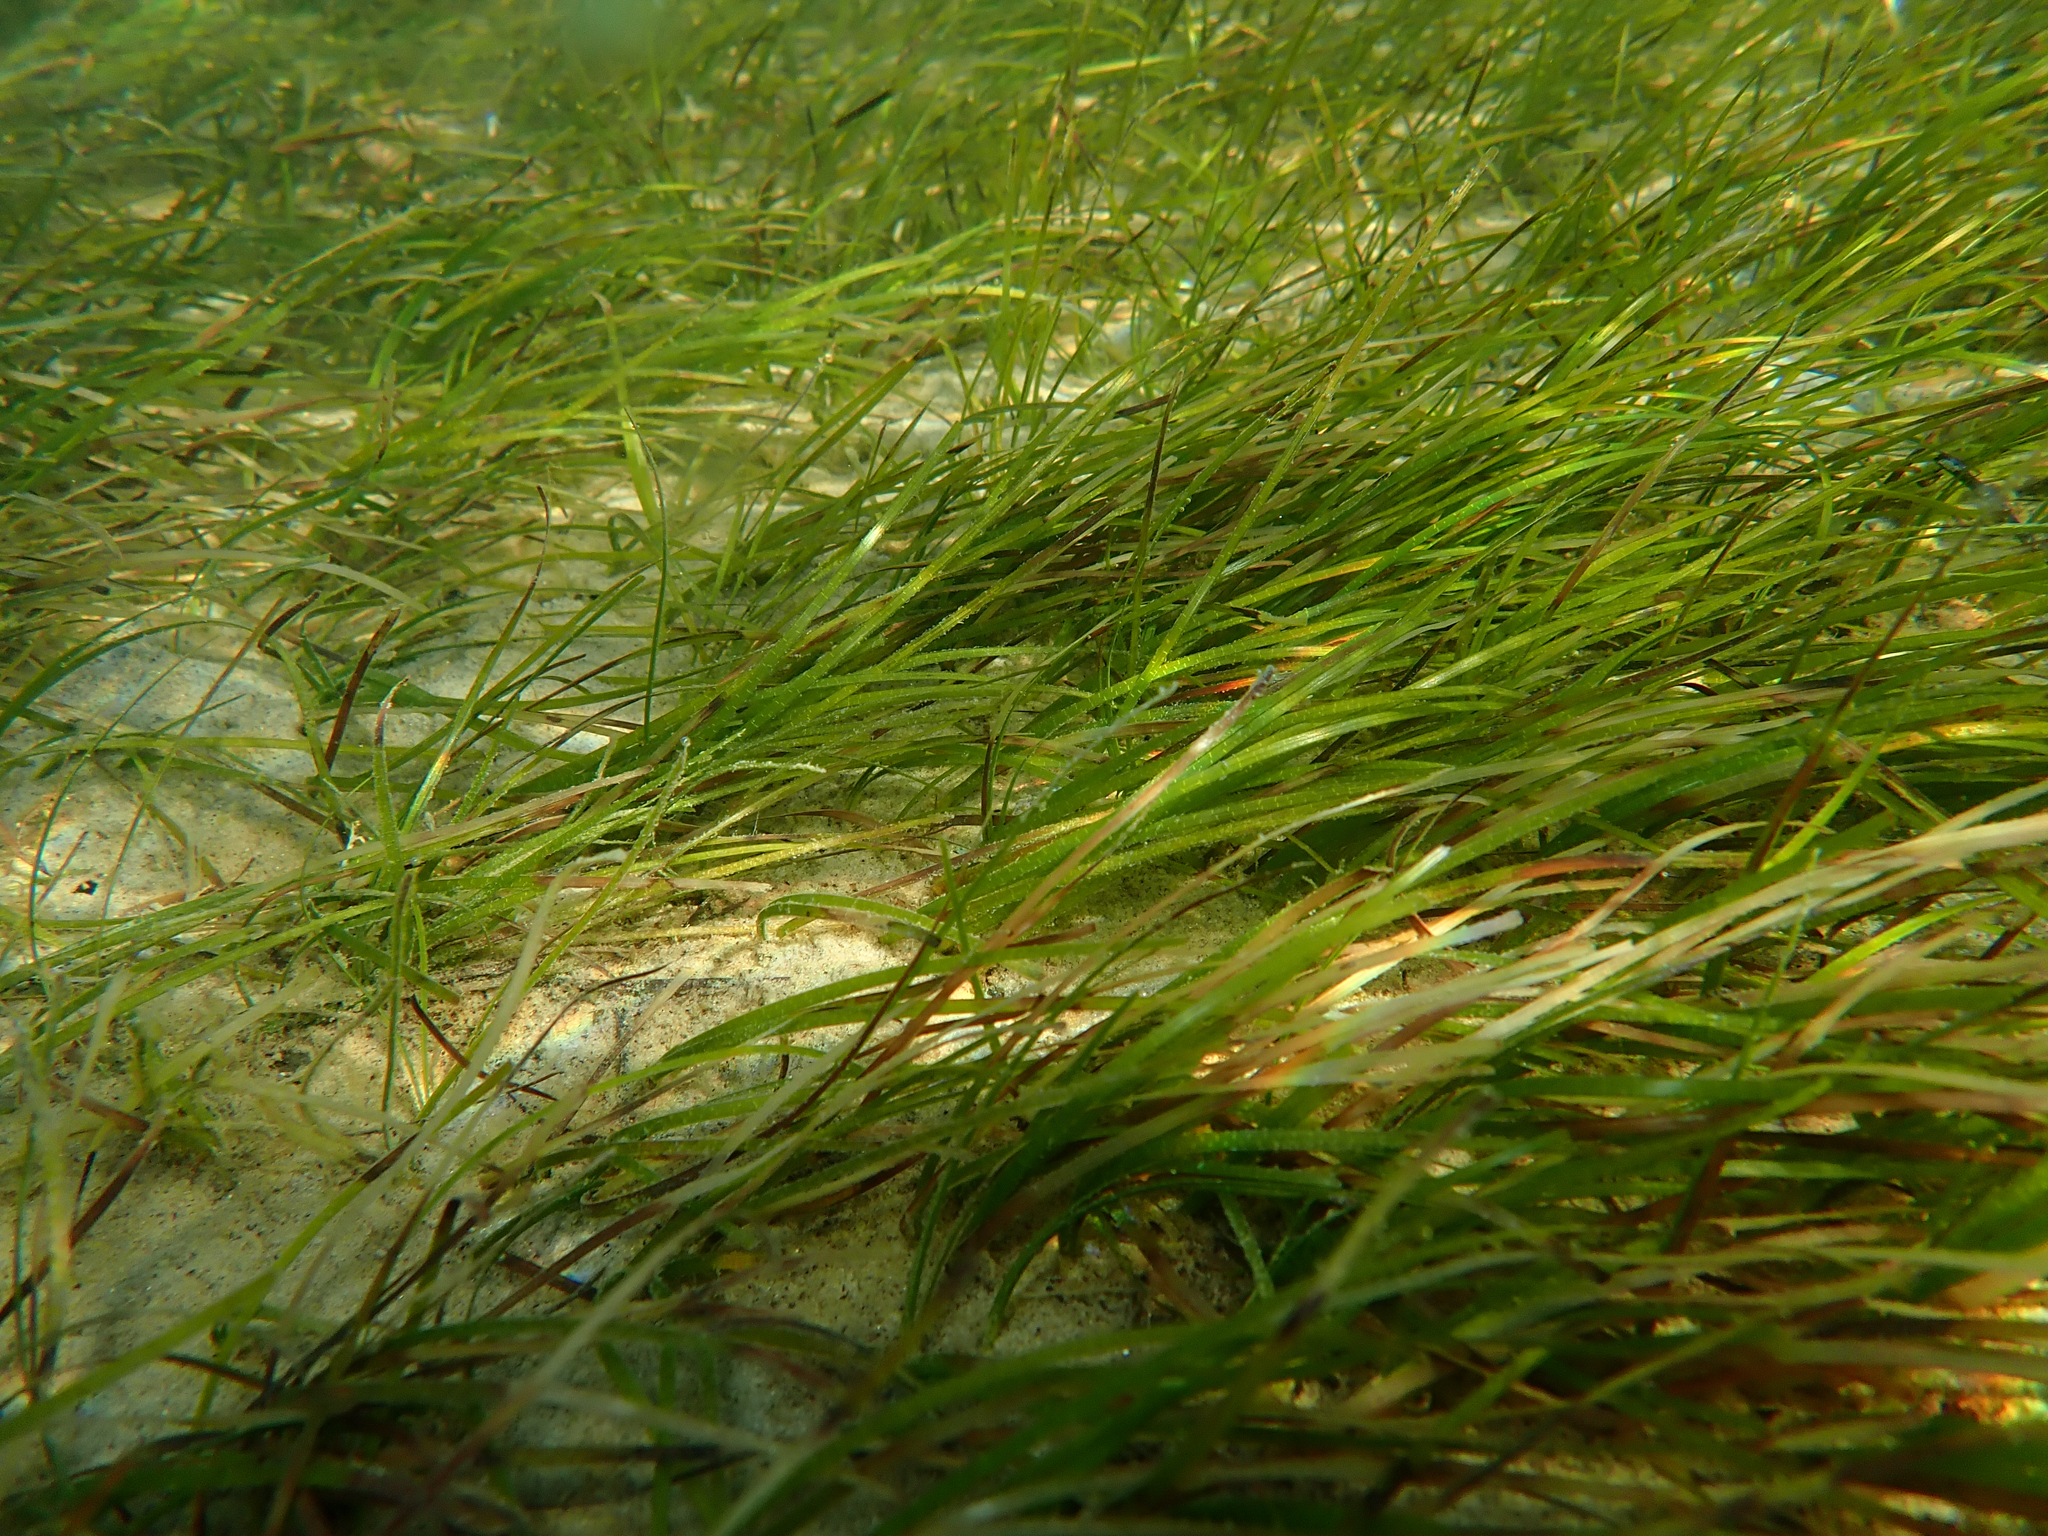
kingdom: Plantae
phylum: Tracheophyta
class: Liliopsida
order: Alismatales
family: Zosteraceae
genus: Zostera
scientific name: Zostera muelleri
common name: Species code: zc
